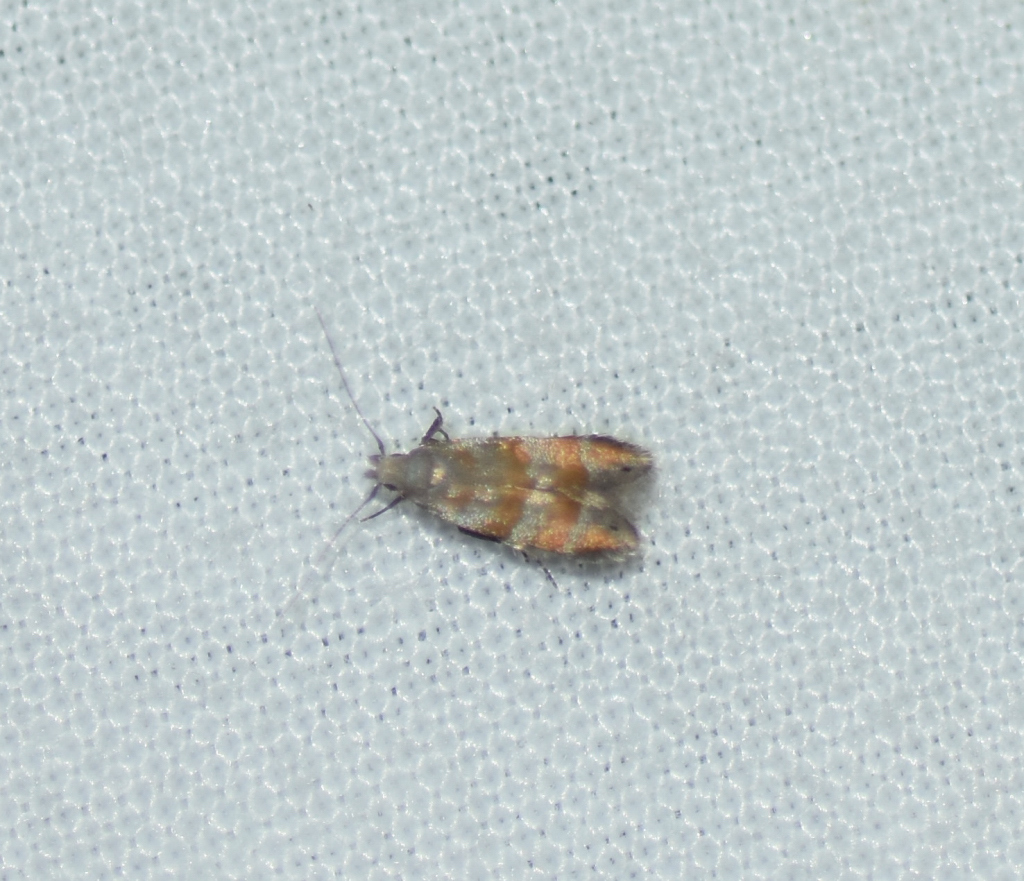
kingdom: Animalia
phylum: Arthropoda
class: Insecta
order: Lepidoptera
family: Gelechiidae
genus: Battaristis
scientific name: Battaristis vittella
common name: Orange stripe-backed moth
